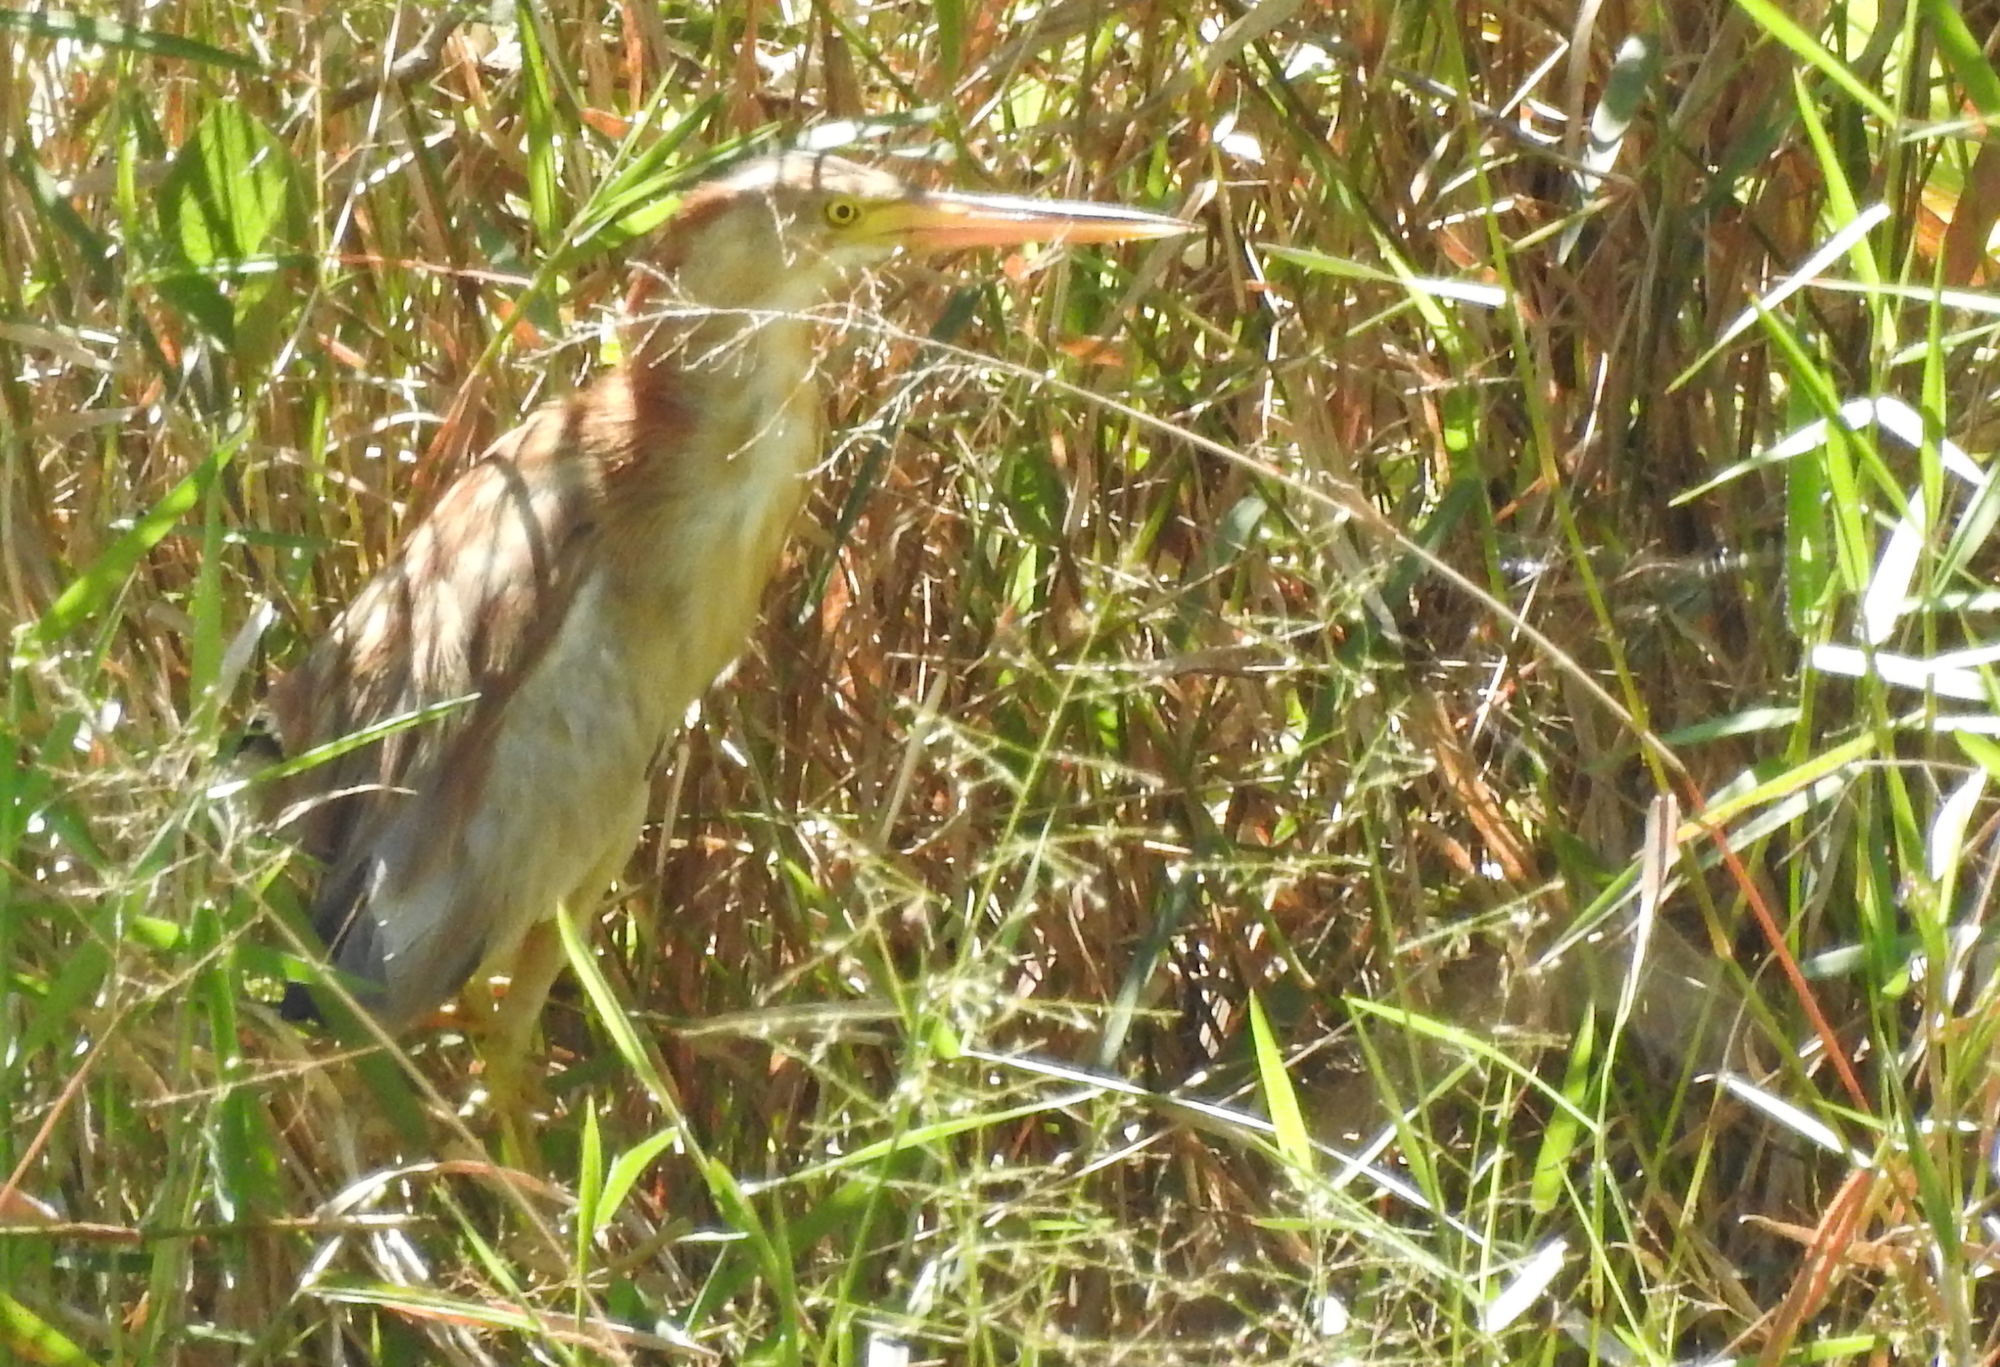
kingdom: Animalia
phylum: Chordata
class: Aves
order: Pelecaniformes
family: Ardeidae
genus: Ixobrychus
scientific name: Ixobrychus sinensis
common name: Yellow bittern
